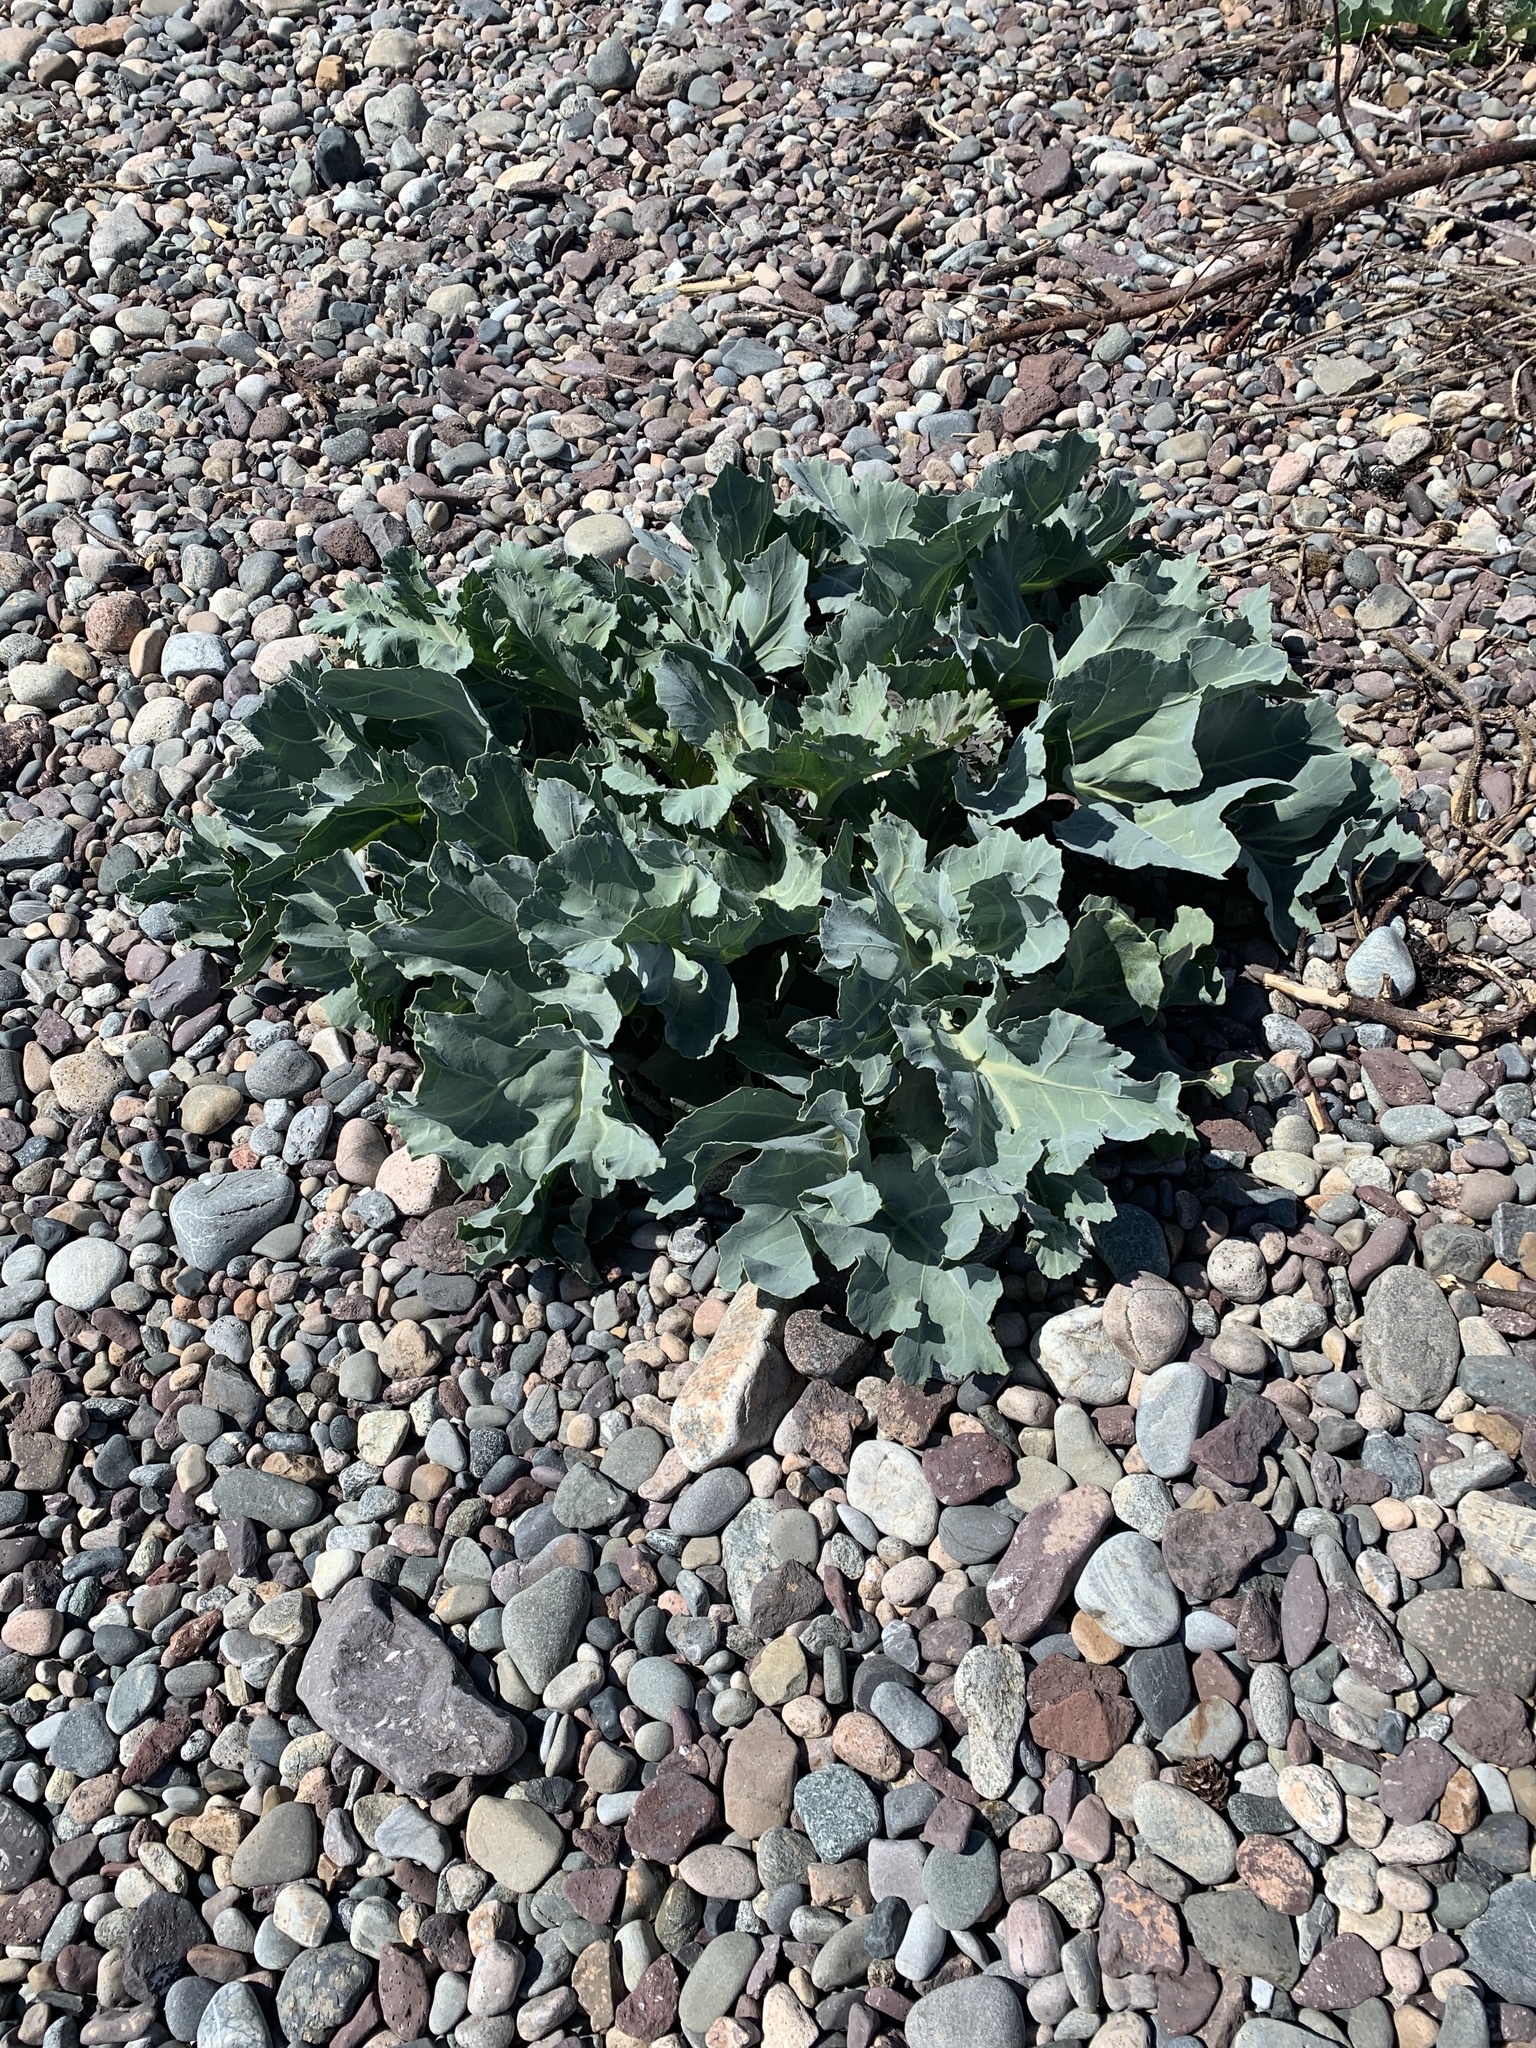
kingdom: Plantae
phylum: Tracheophyta
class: Magnoliopsida
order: Brassicales
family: Brassicaceae
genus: Crambe
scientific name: Crambe maritima
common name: Sea-kale
